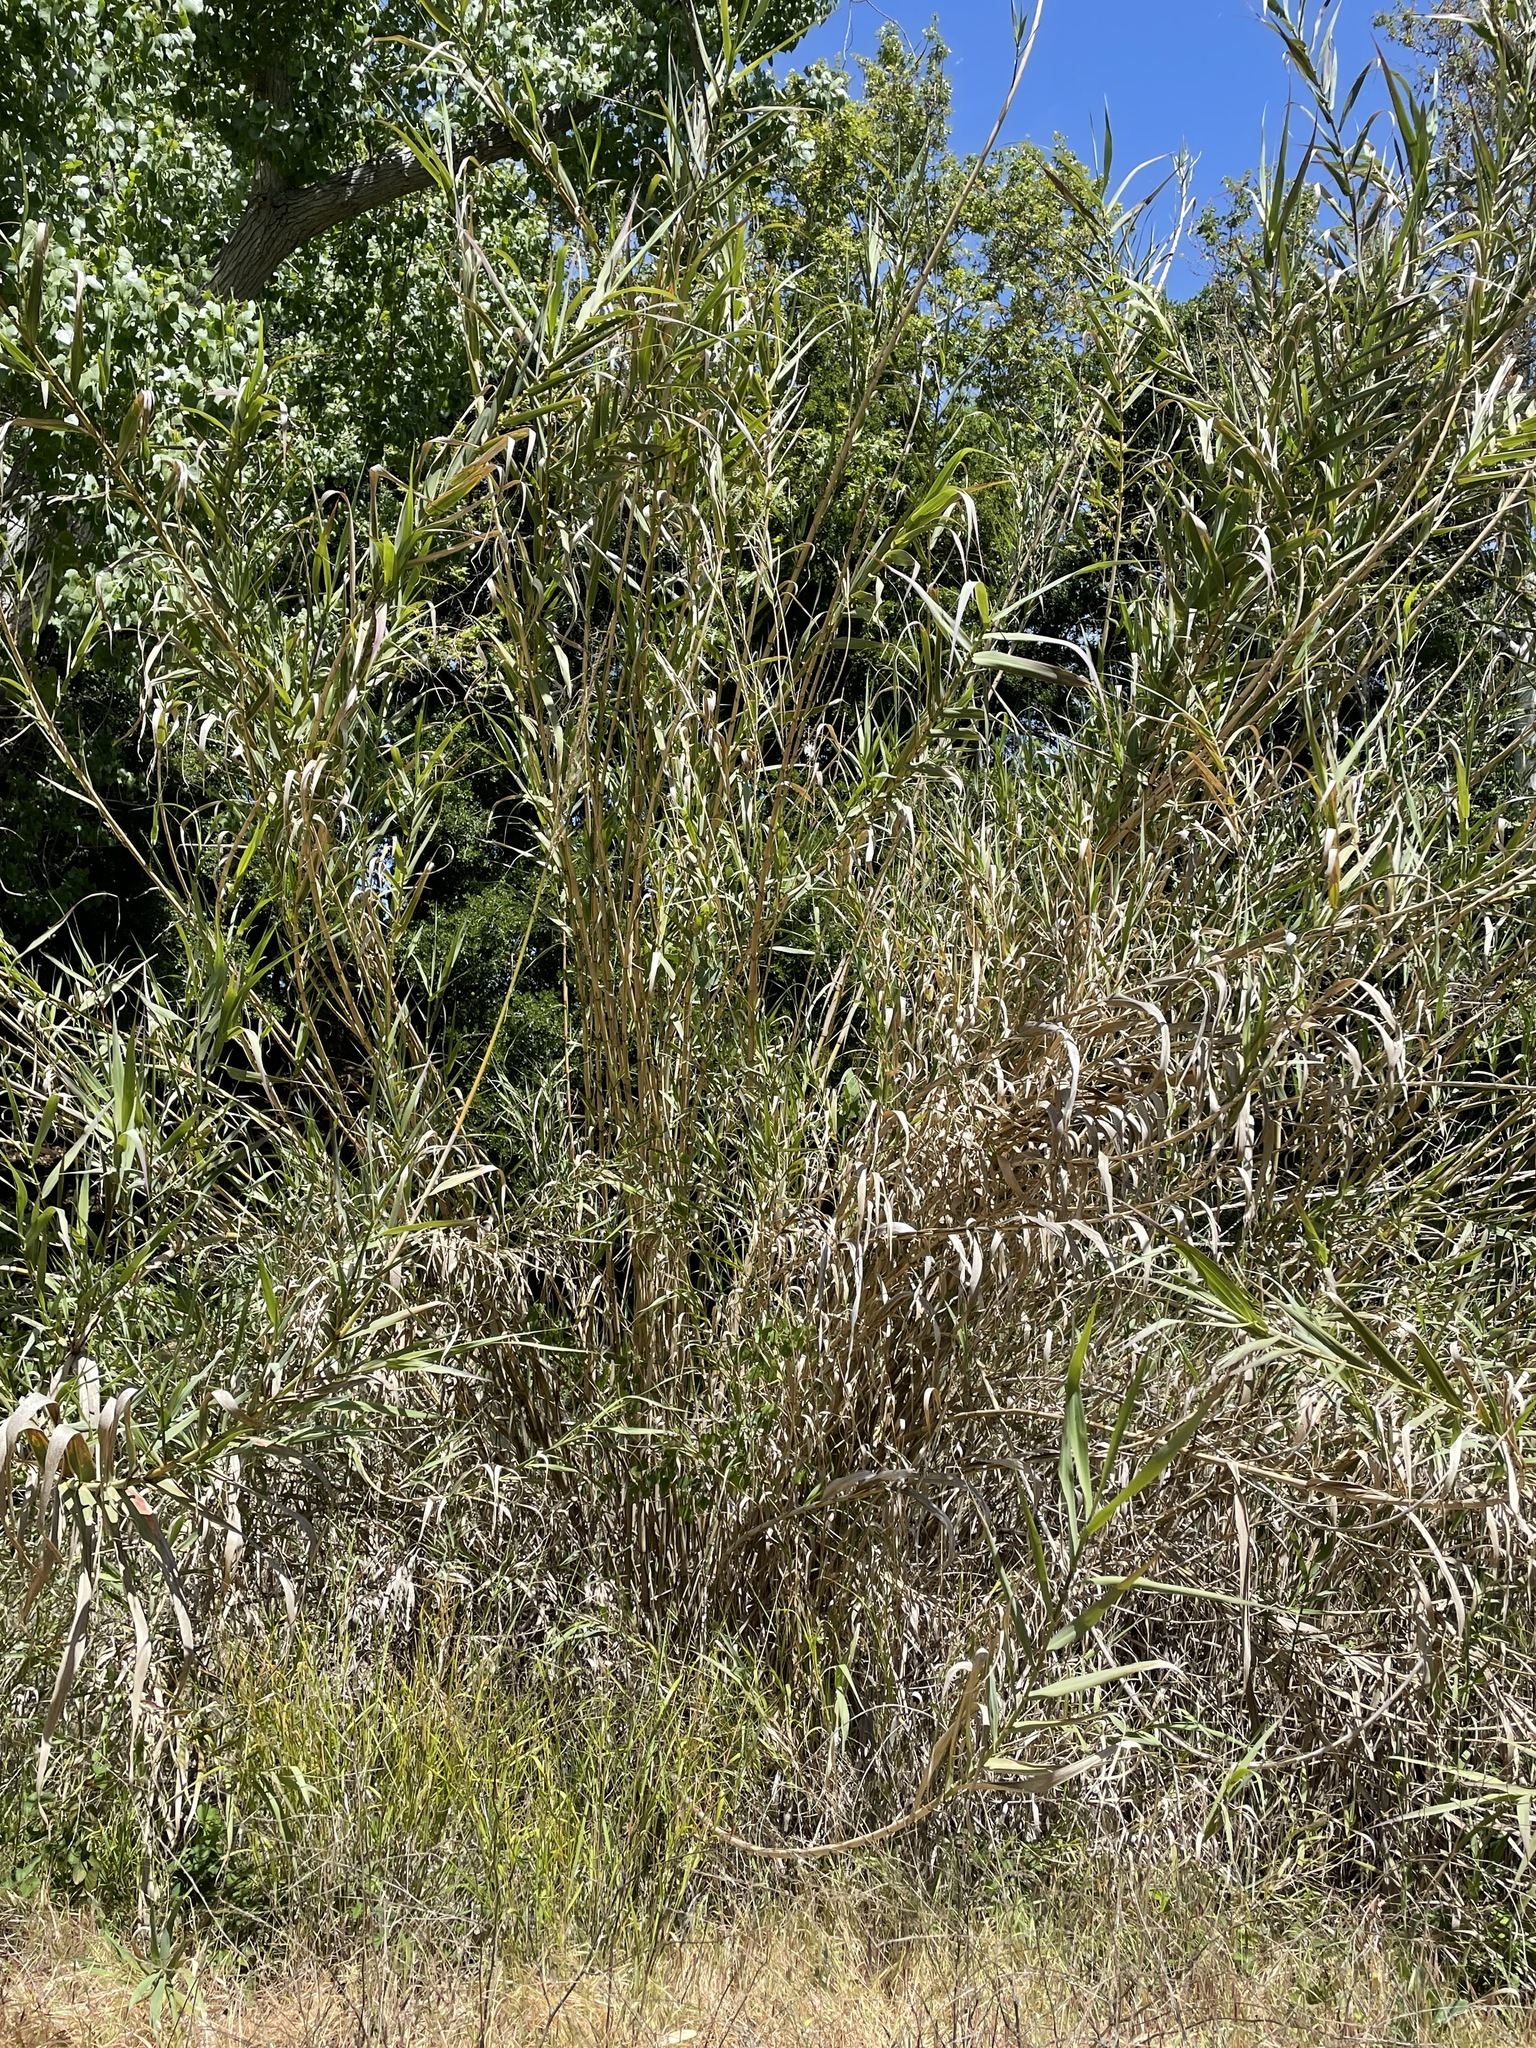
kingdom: Plantae
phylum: Tracheophyta
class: Liliopsida
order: Poales
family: Poaceae
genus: Arundo
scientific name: Arundo donax
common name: Giant reed
